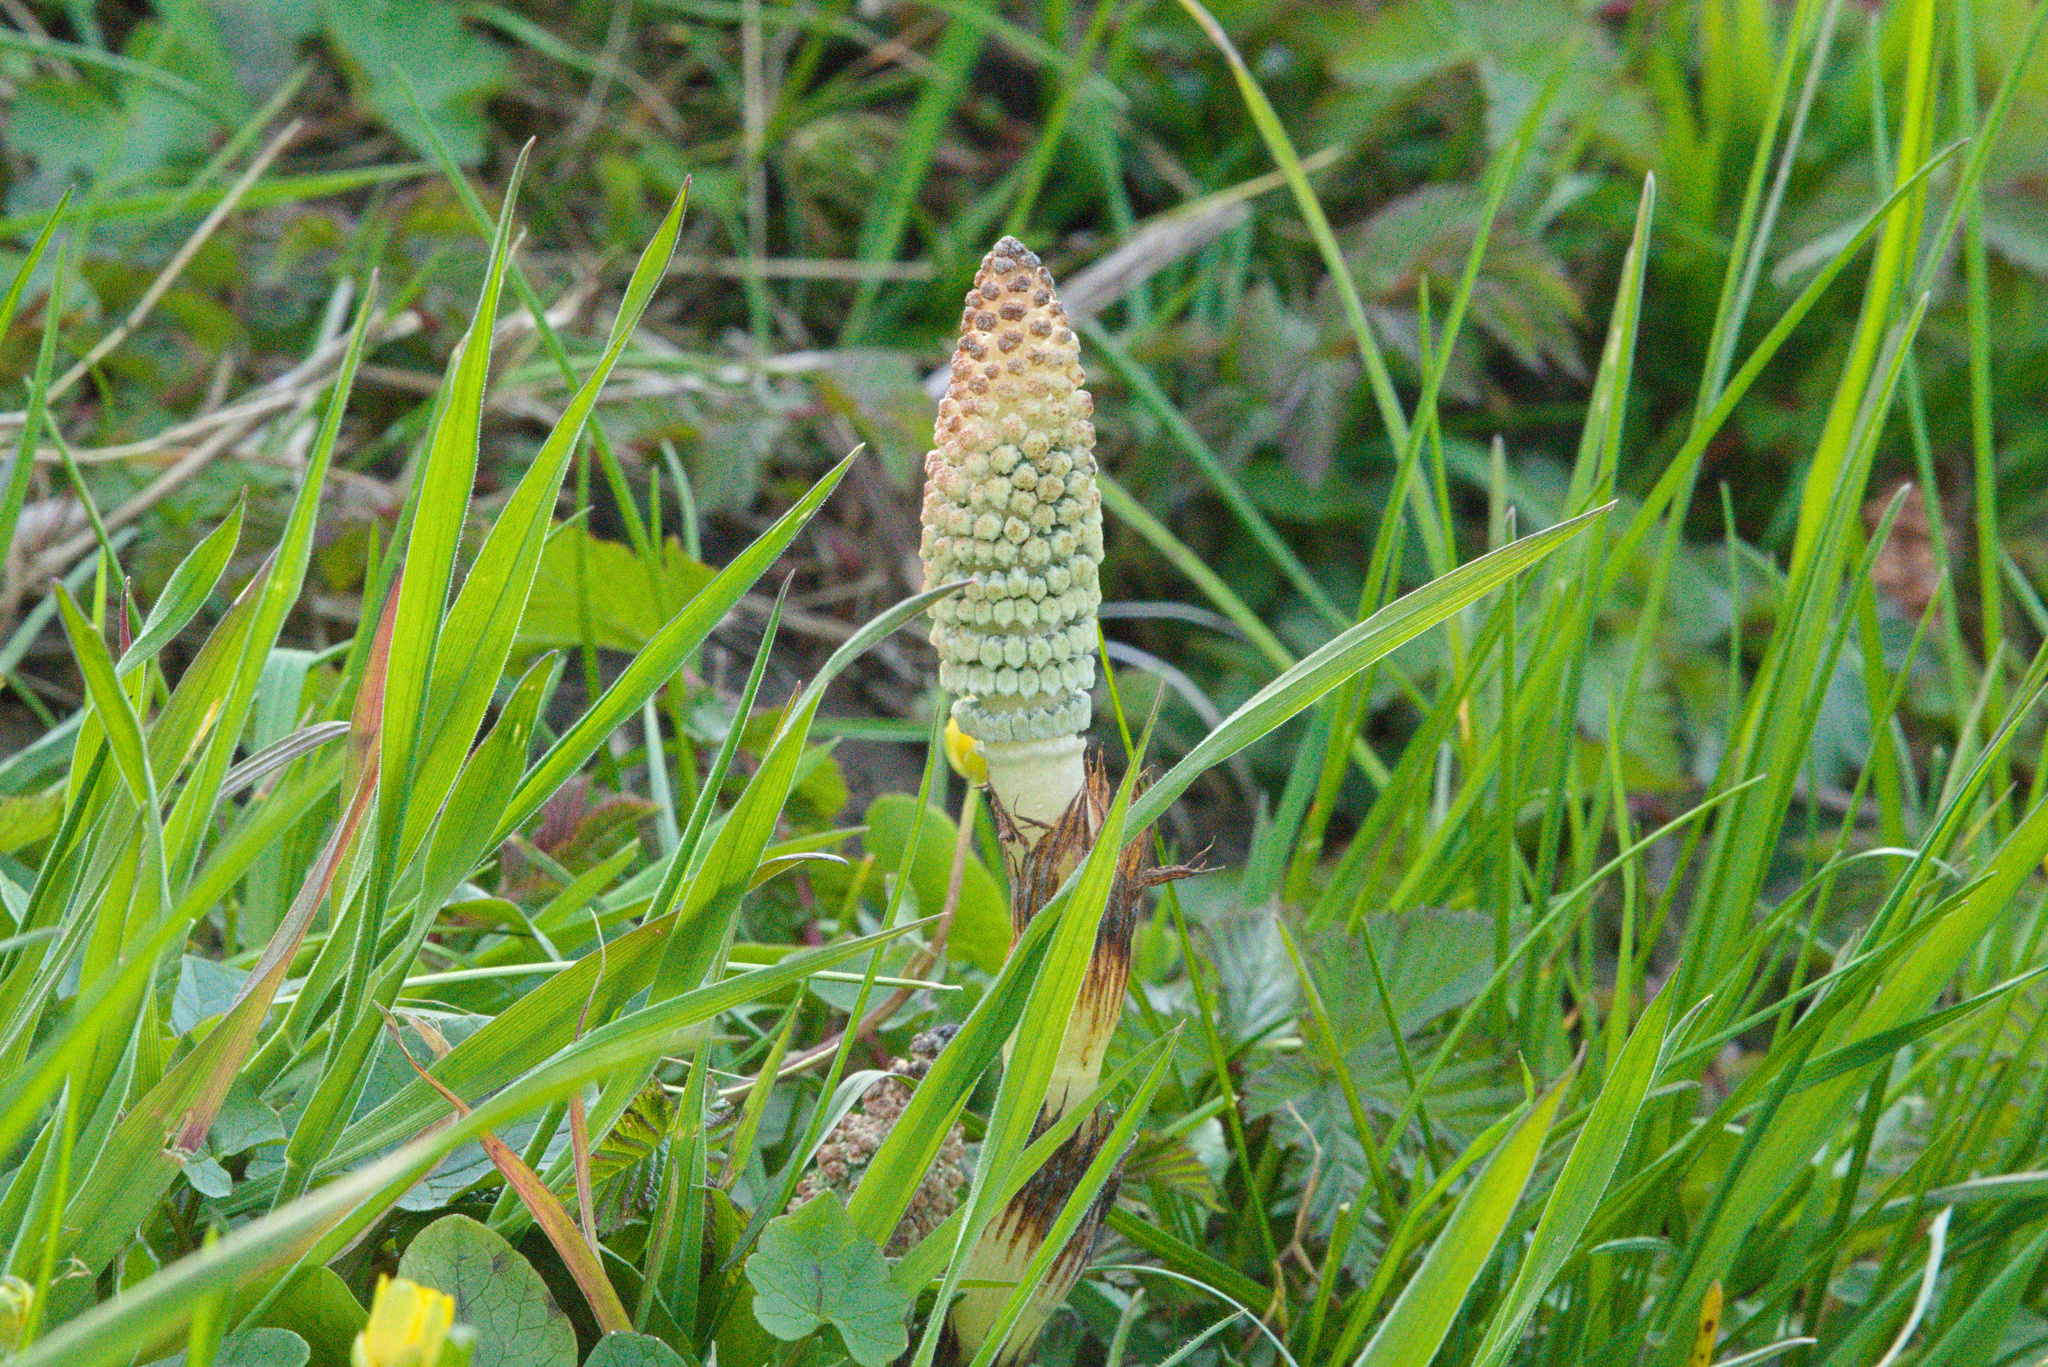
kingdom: Plantae
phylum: Tracheophyta
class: Polypodiopsida
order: Equisetales
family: Equisetaceae
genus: Equisetum
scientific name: Equisetum telmateia
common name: Great horsetail
